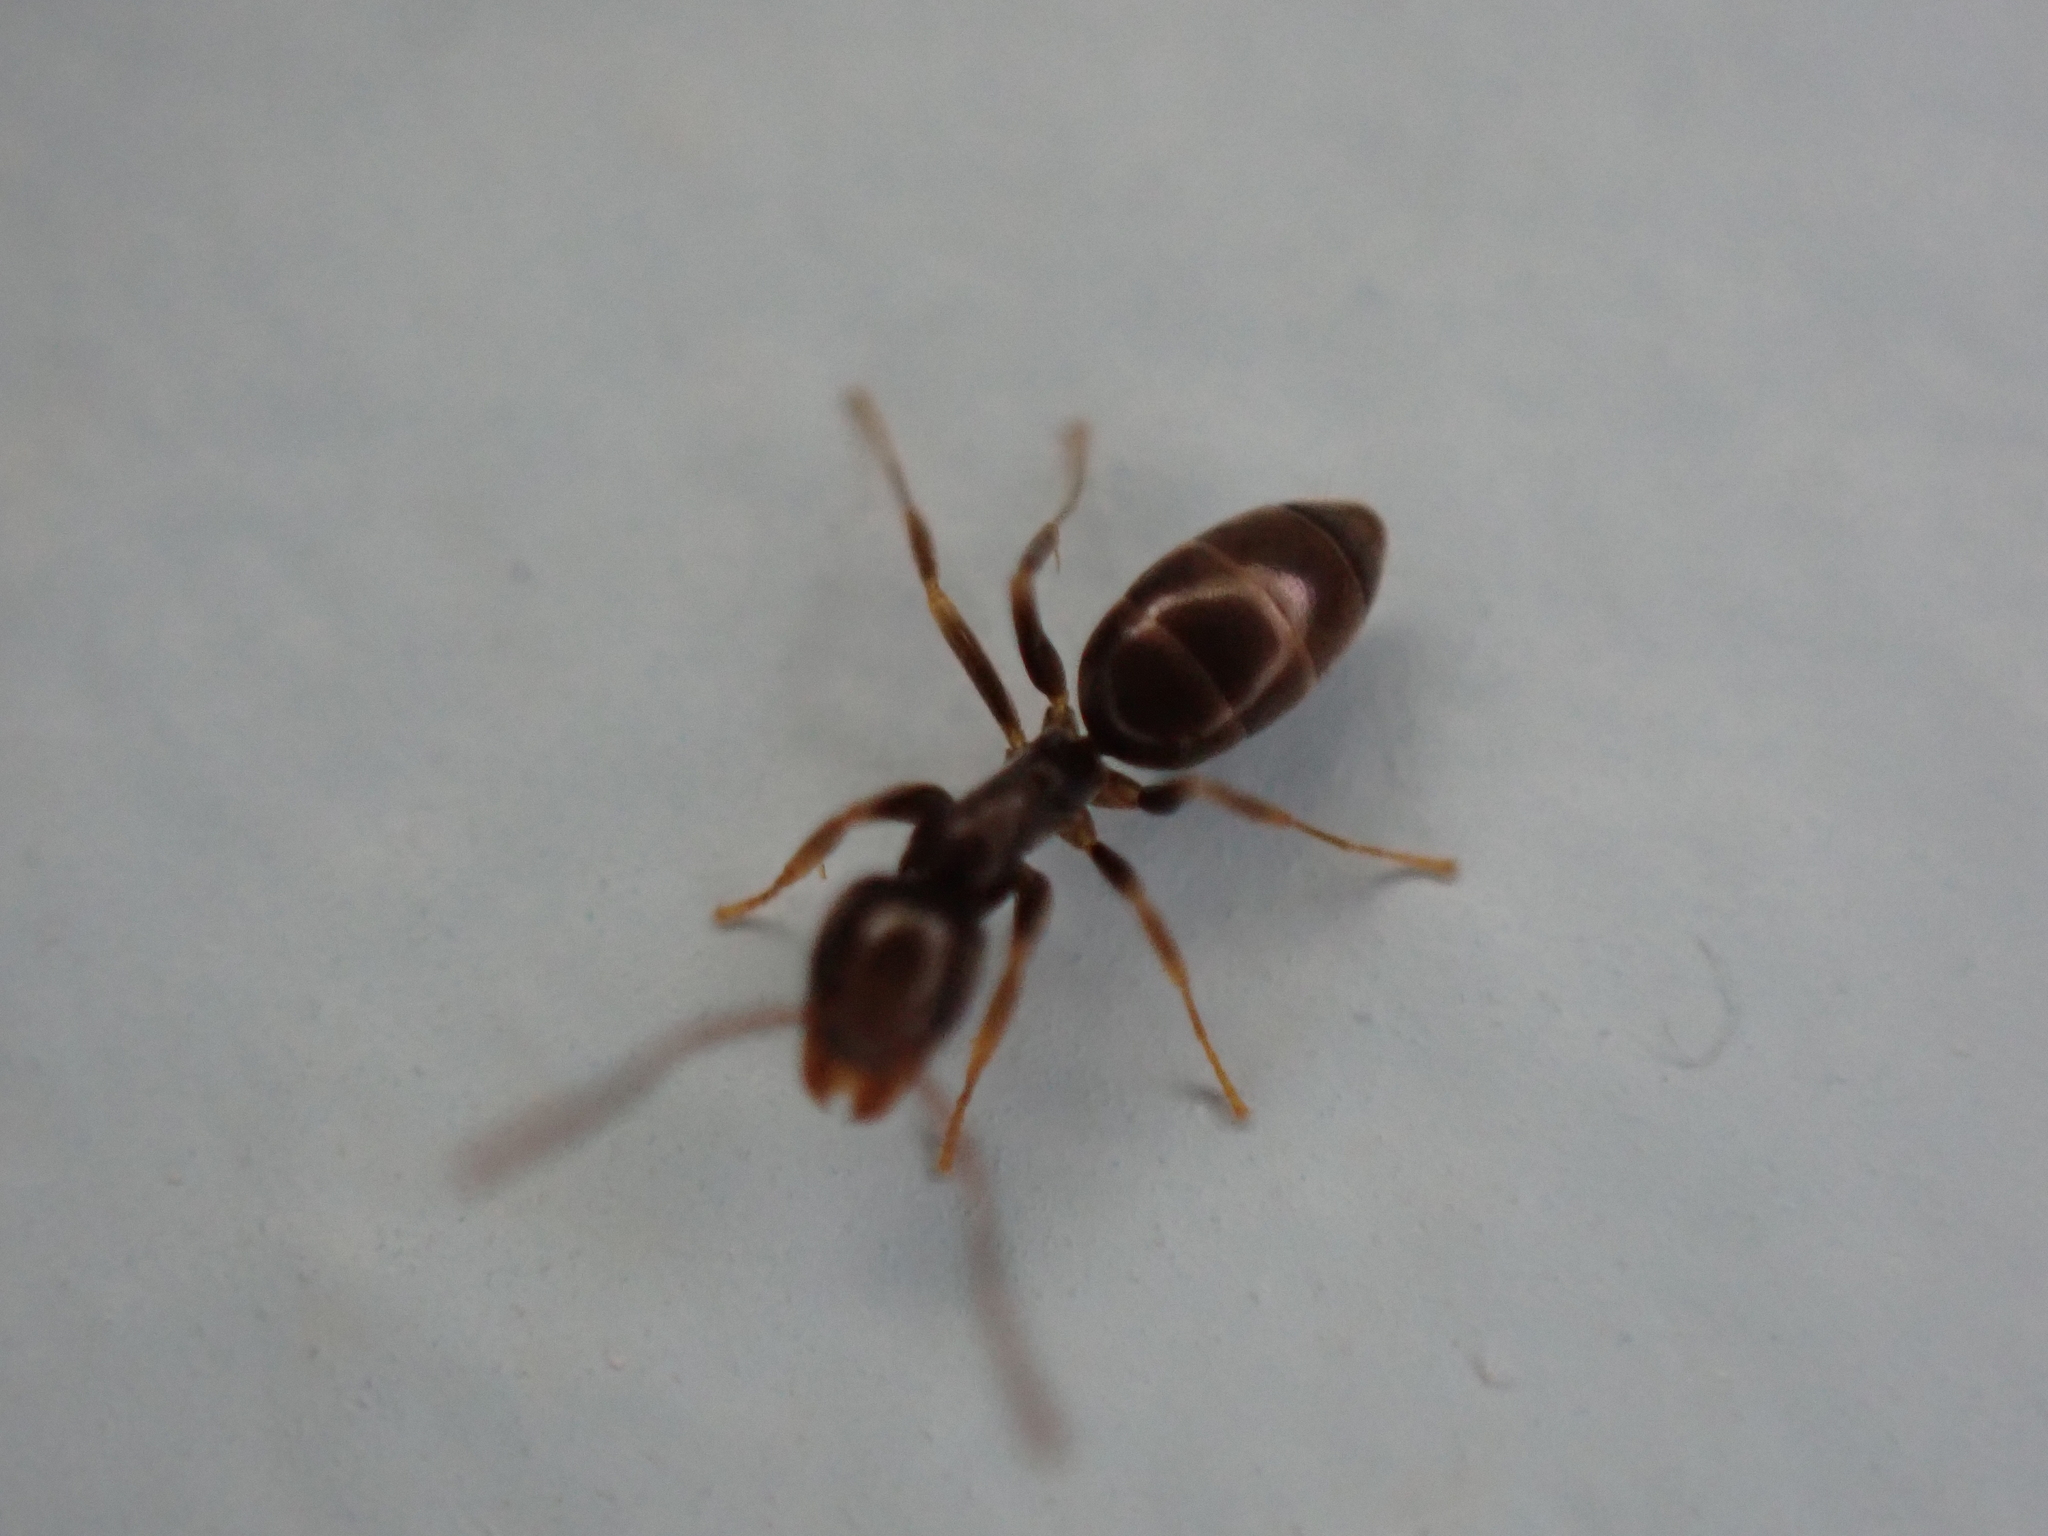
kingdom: Animalia
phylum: Arthropoda
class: Insecta
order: Hymenoptera
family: Formicidae
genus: Tapinoma
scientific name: Tapinoma sessile
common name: Odorous house ant
